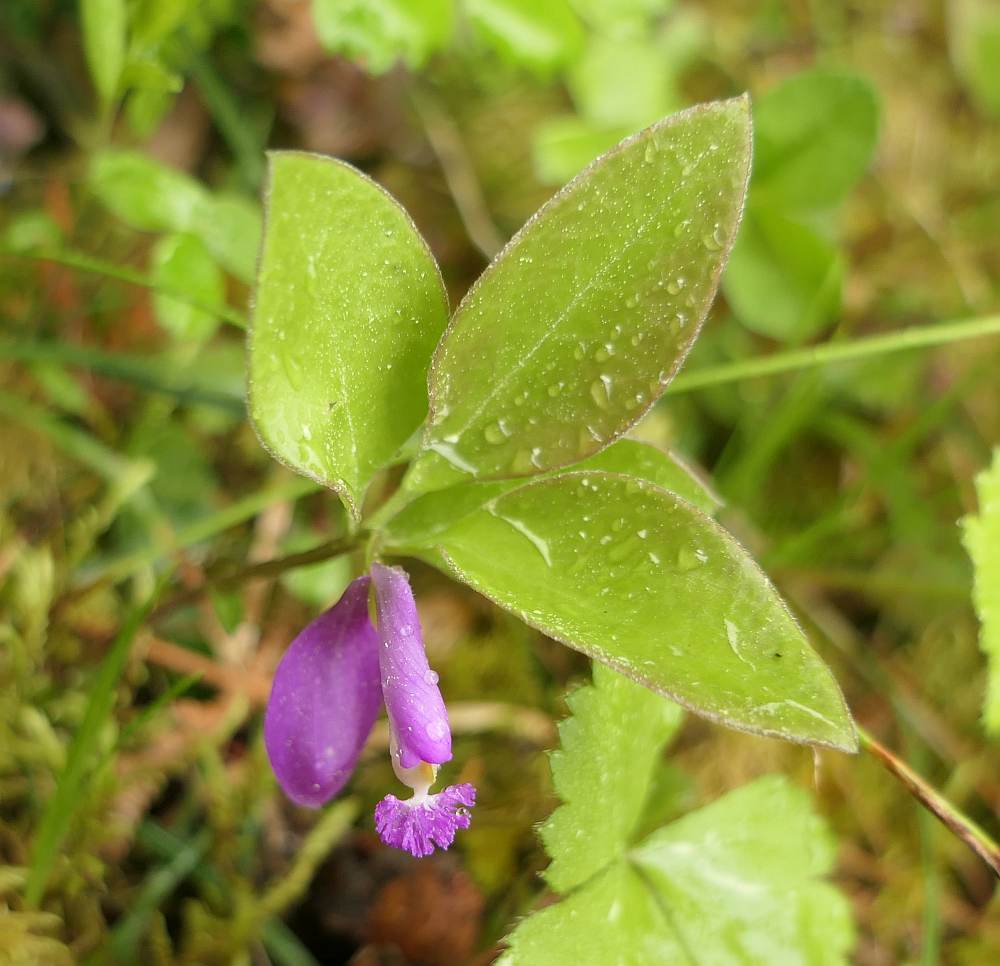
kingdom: Plantae
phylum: Tracheophyta
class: Magnoliopsida
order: Fabales
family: Polygalaceae
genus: Polygaloides
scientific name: Polygaloides paucifolia
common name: Bird-on-the-wing
